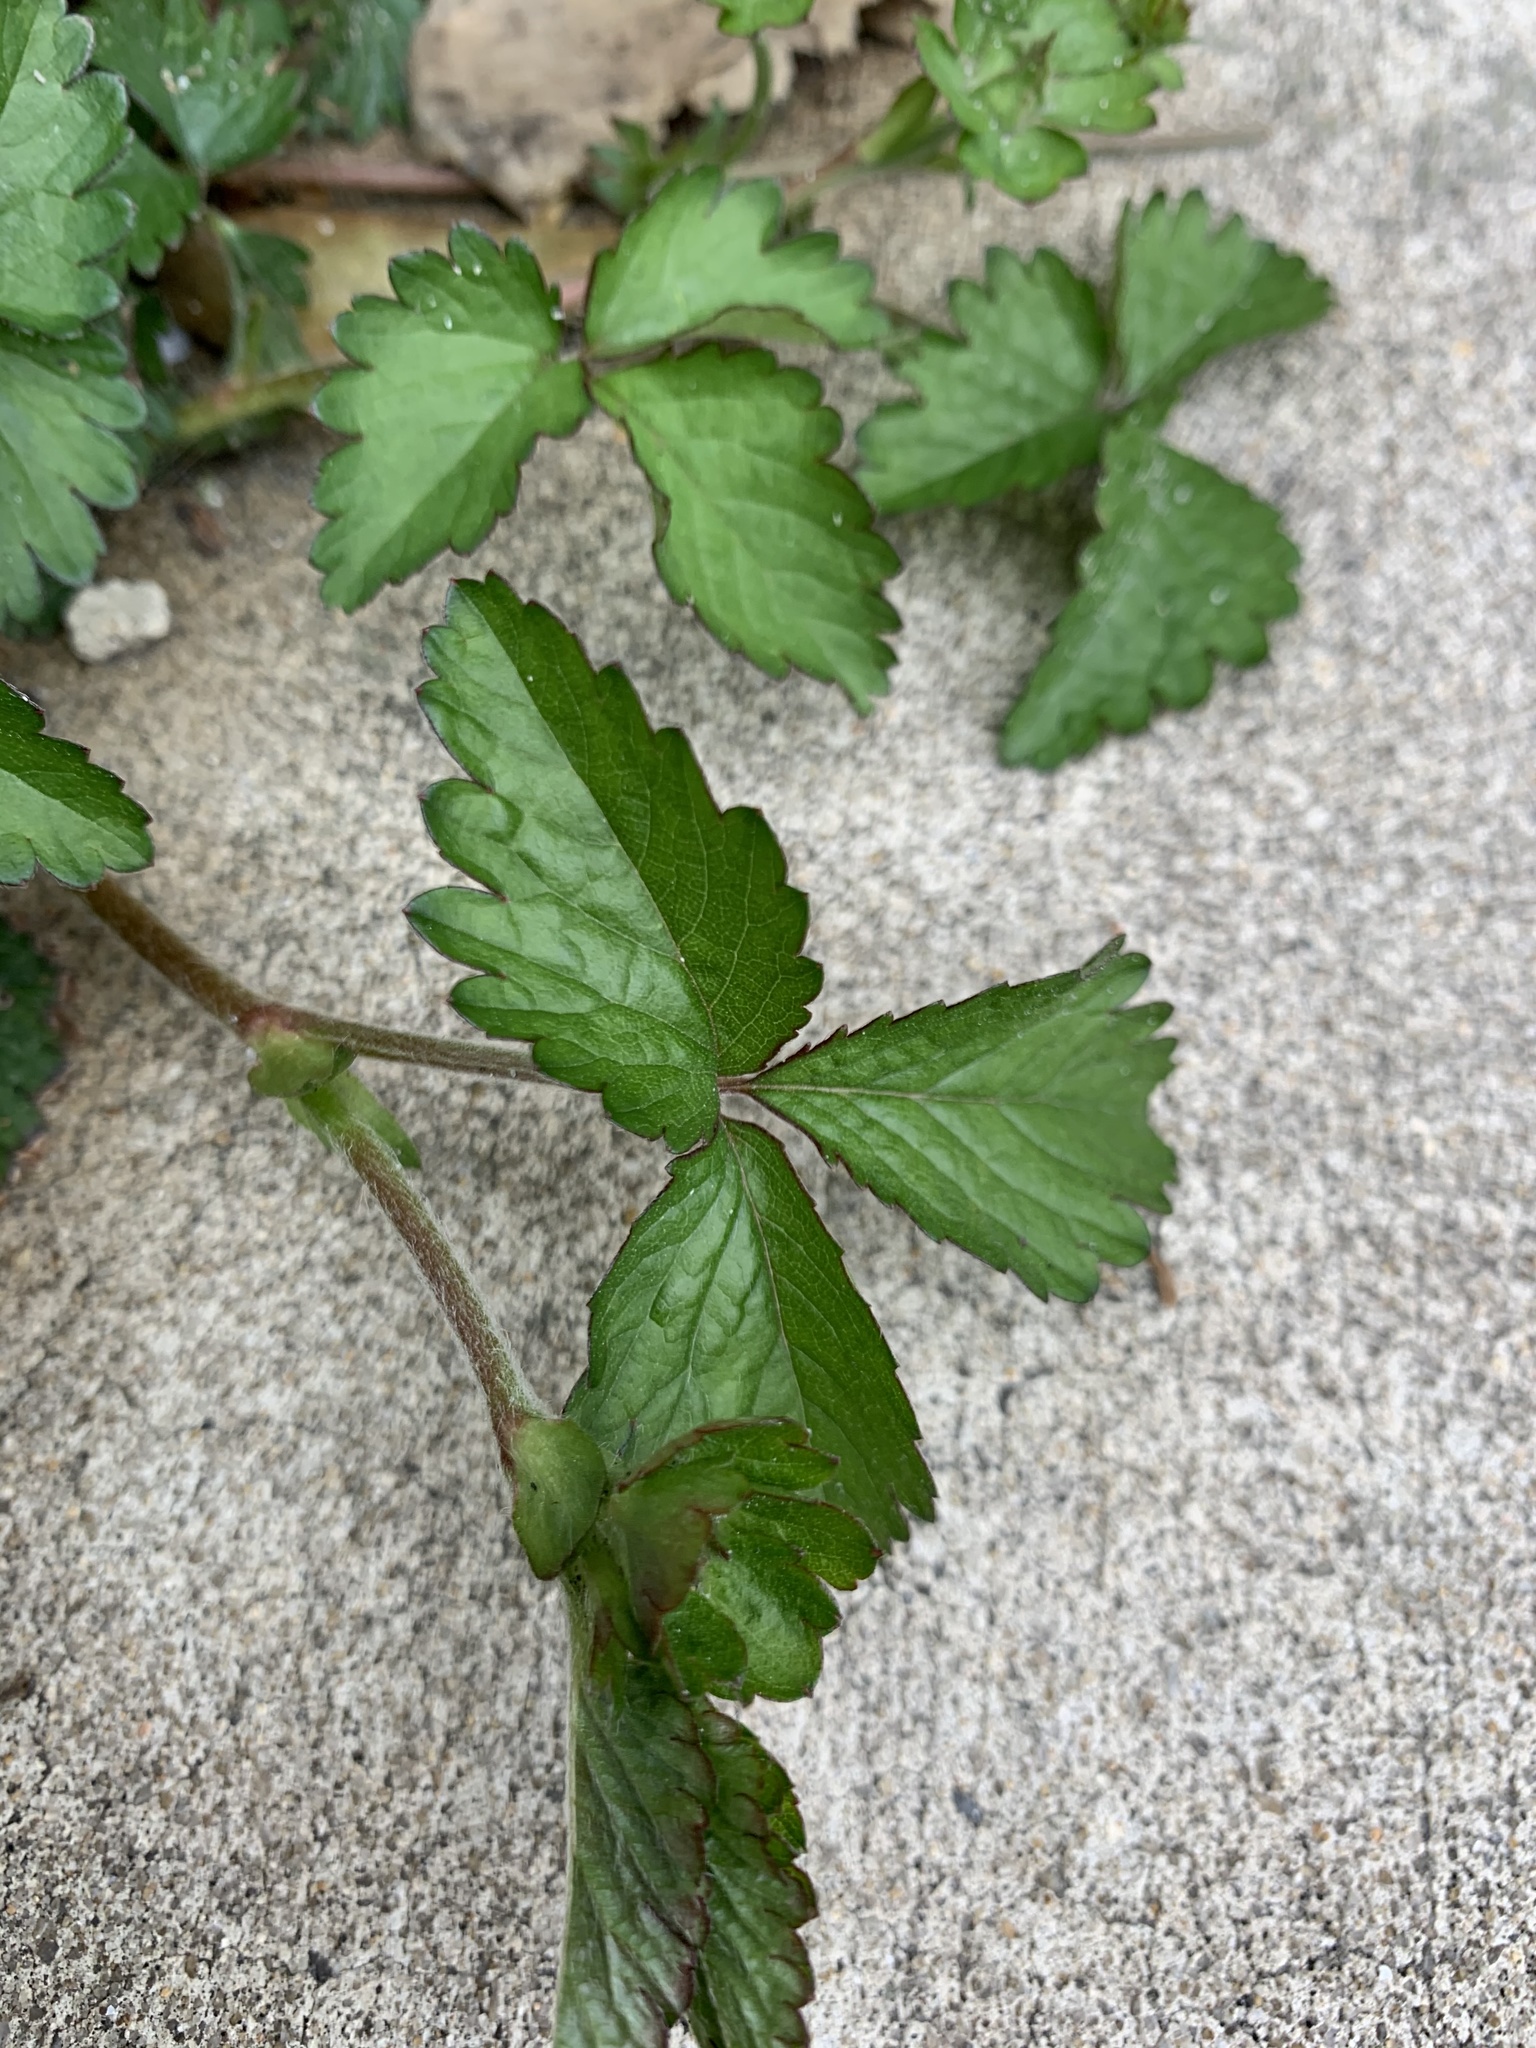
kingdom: Plantae
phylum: Tracheophyta
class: Magnoliopsida
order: Rosales
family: Rosaceae
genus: Potentilla
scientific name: Potentilla indica
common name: Yellow-flowered strawberry
